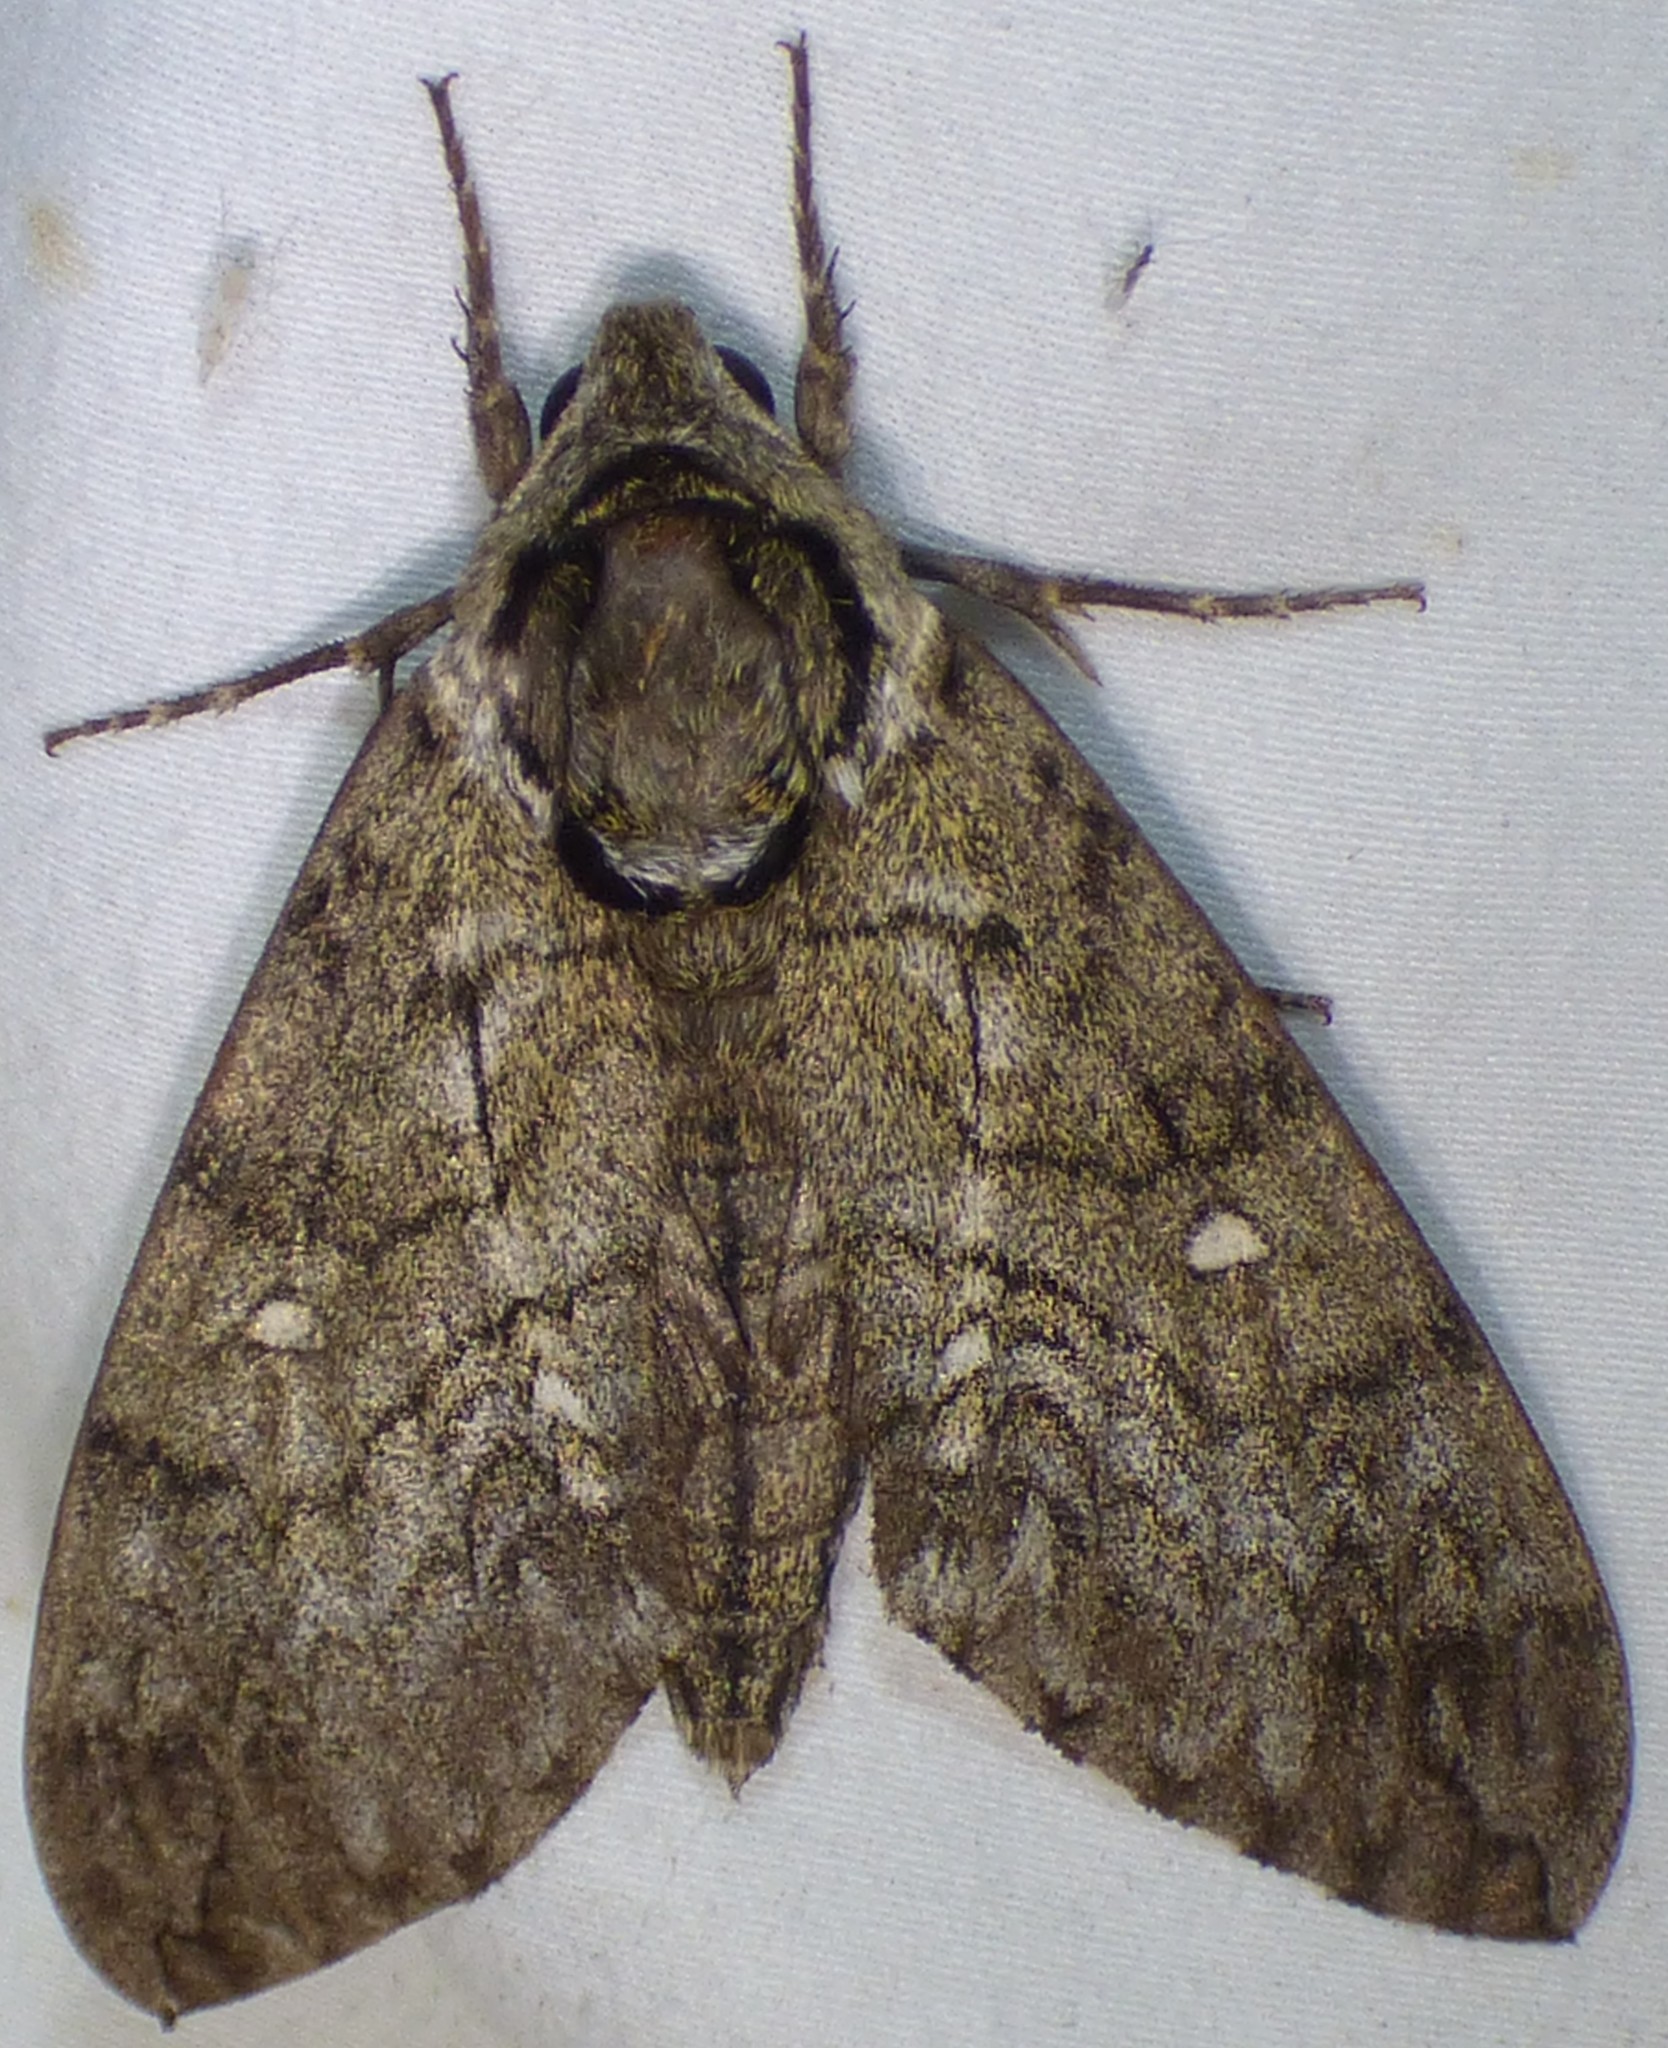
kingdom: Animalia
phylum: Arthropoda
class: Insecta
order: Lepidoptera
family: Sphingidae
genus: Ceratomia
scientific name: Ceratomia undulosa
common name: Waved sphinx
